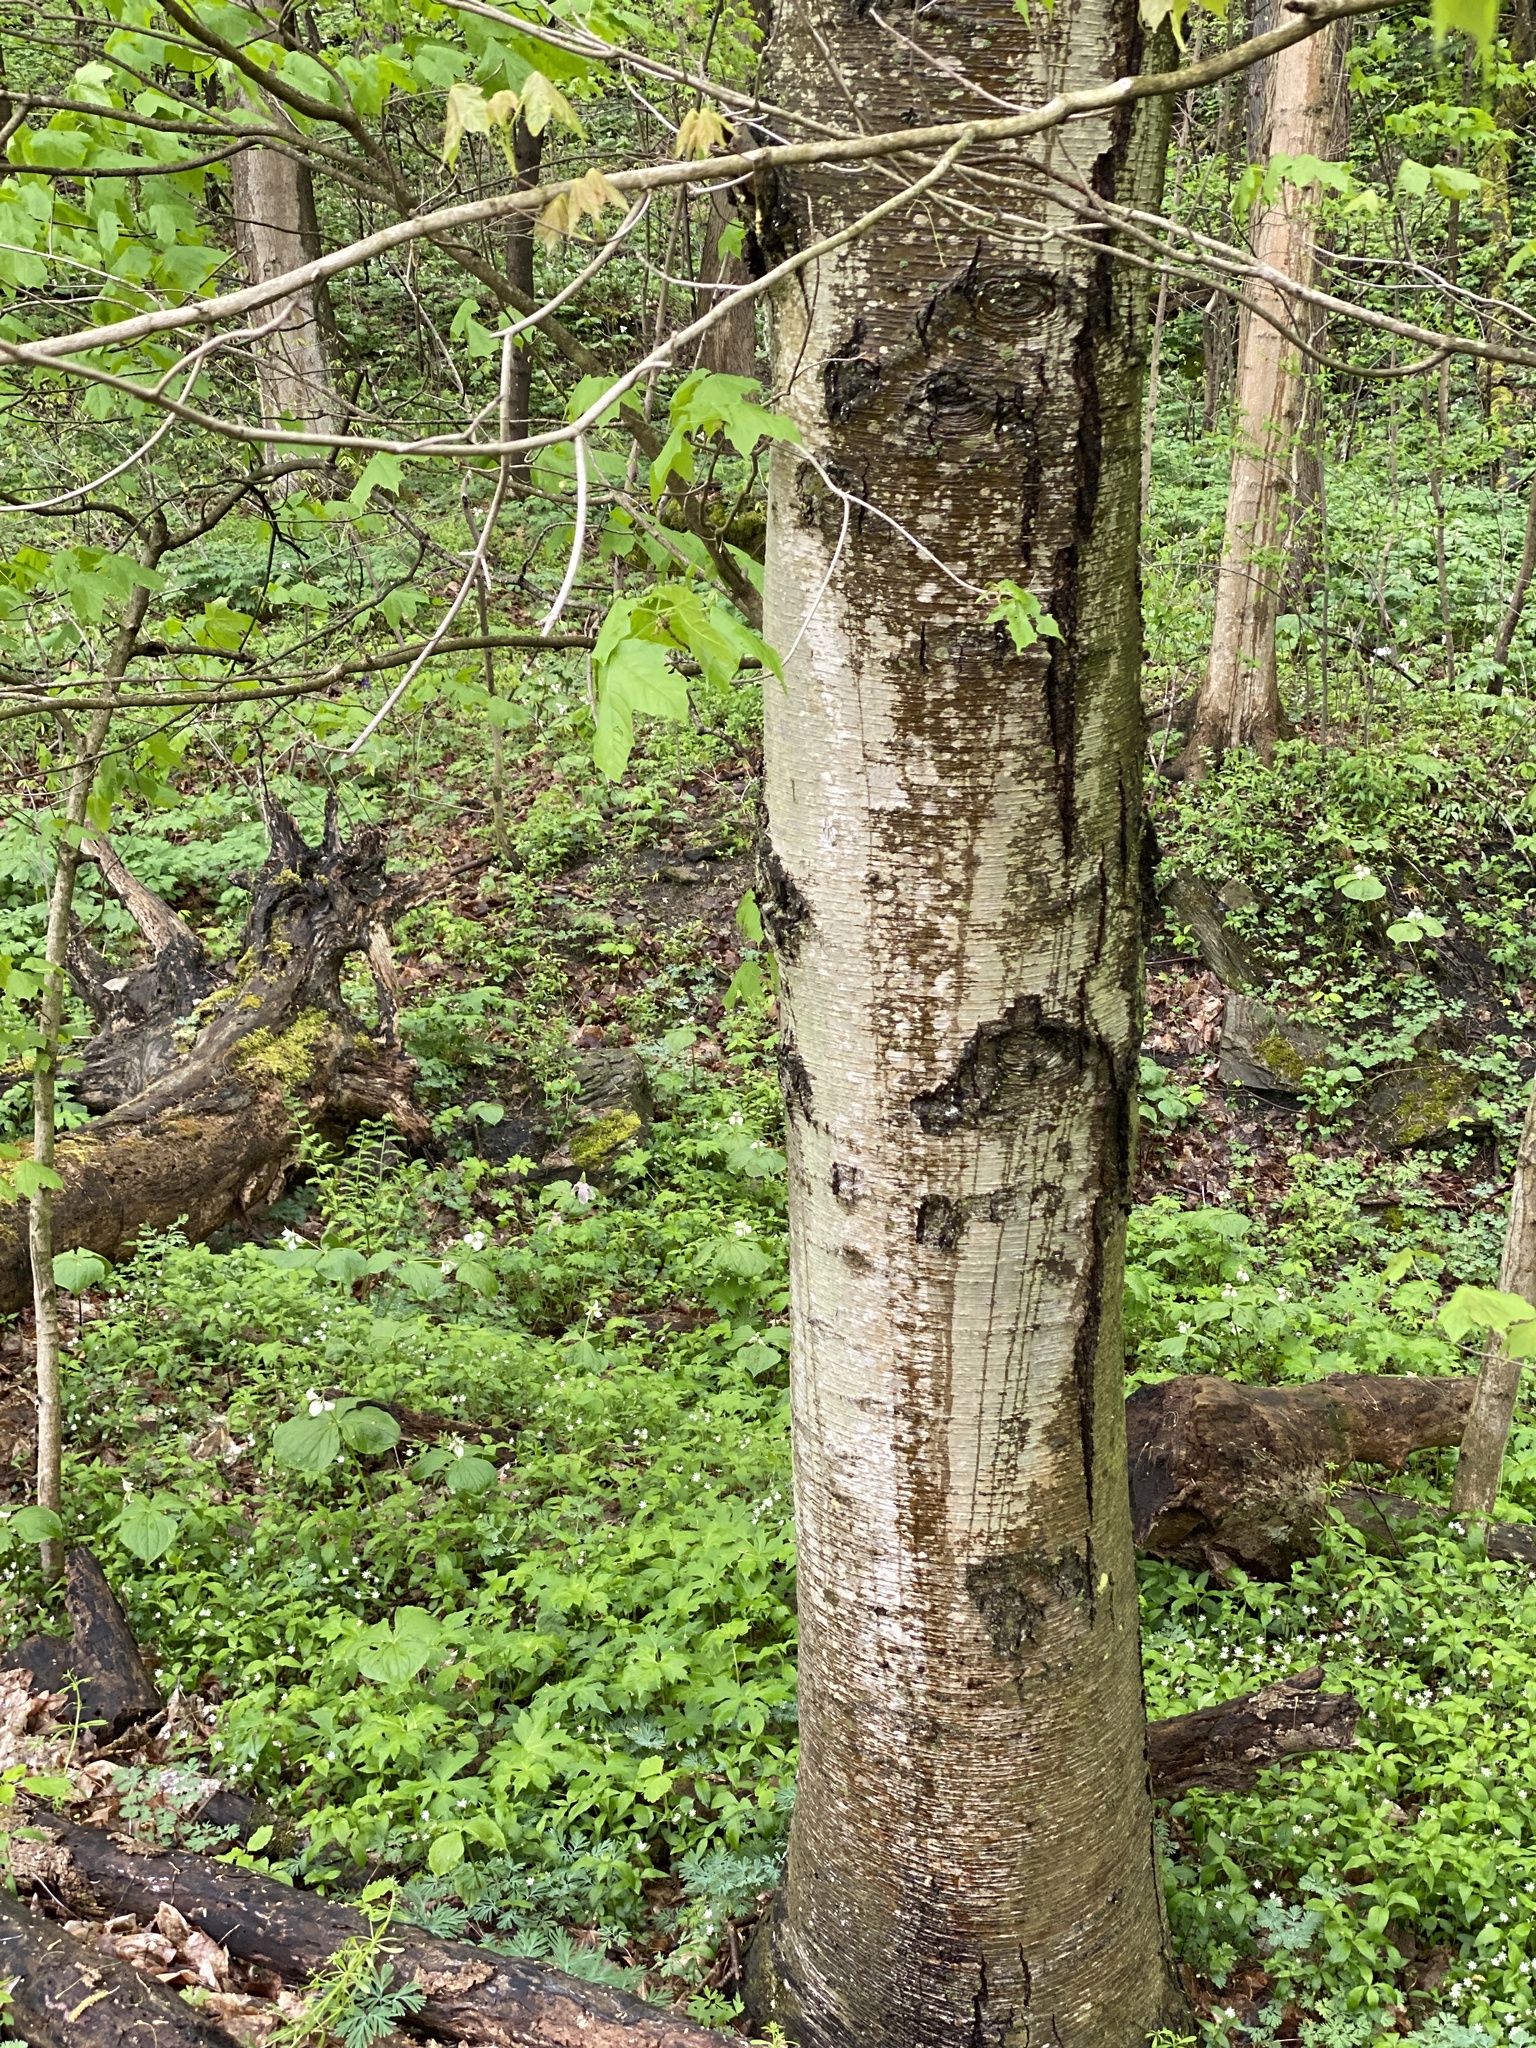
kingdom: Plantae
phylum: Tracheophyta
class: Magnoliopsida
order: Fagales
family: Betulaceae
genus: Betula
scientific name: Betula nigra
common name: Black birch
